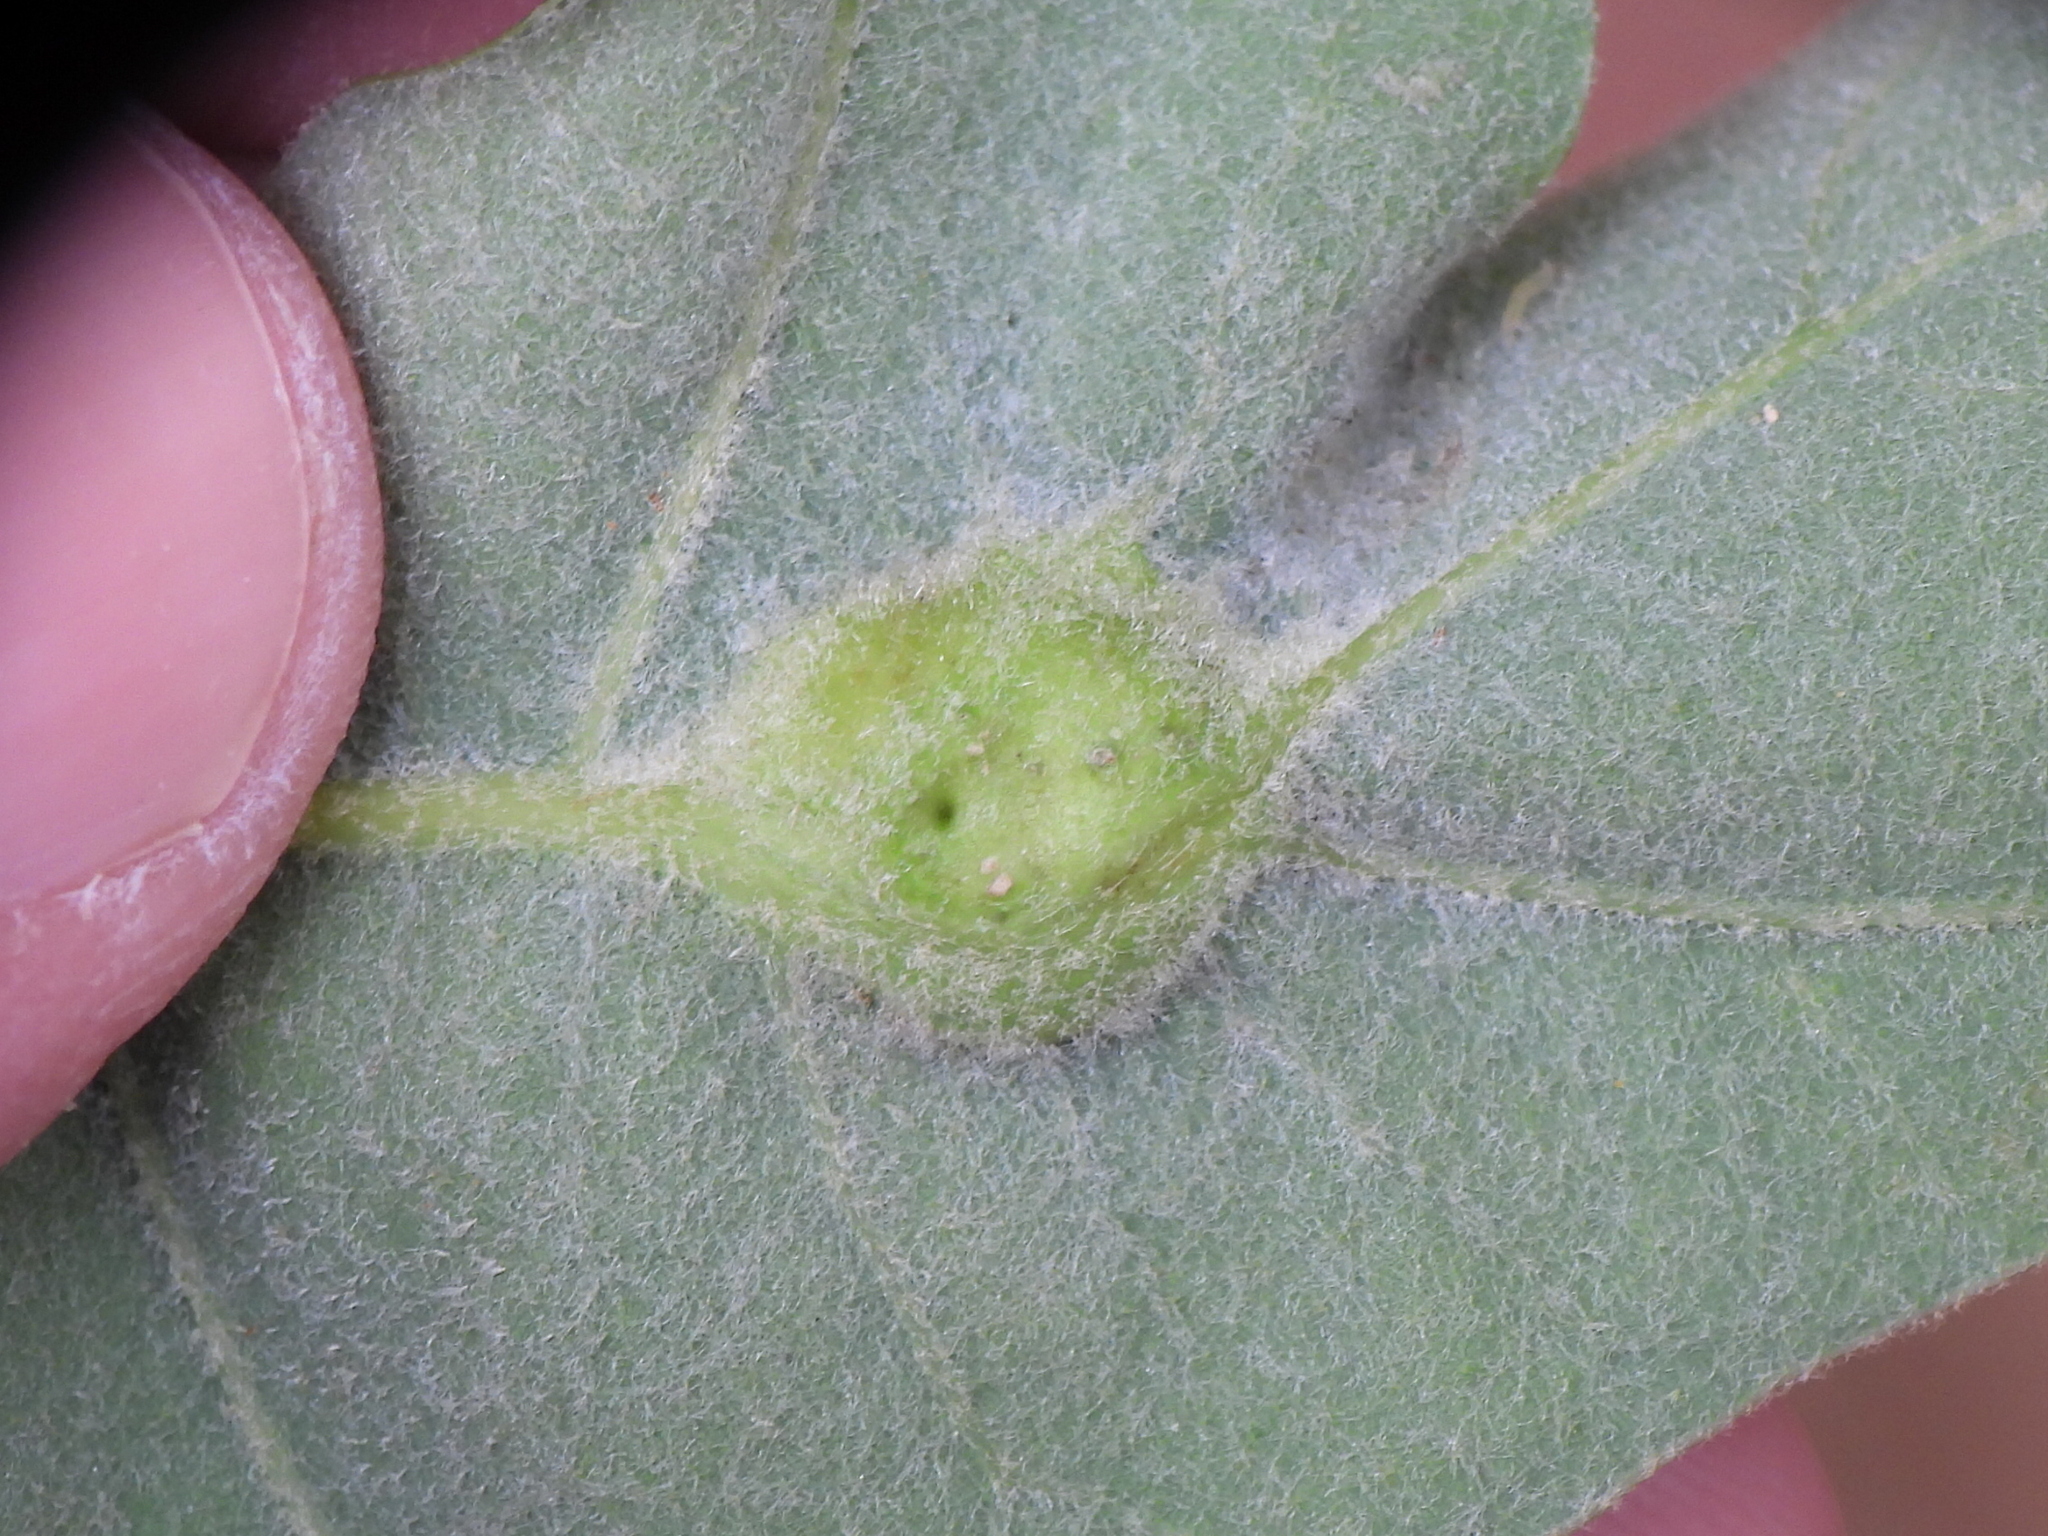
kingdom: Animalia
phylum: Arthropoda
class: Insecta
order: Hymenoptera
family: Cynipidae
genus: Andricus
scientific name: Andricus
